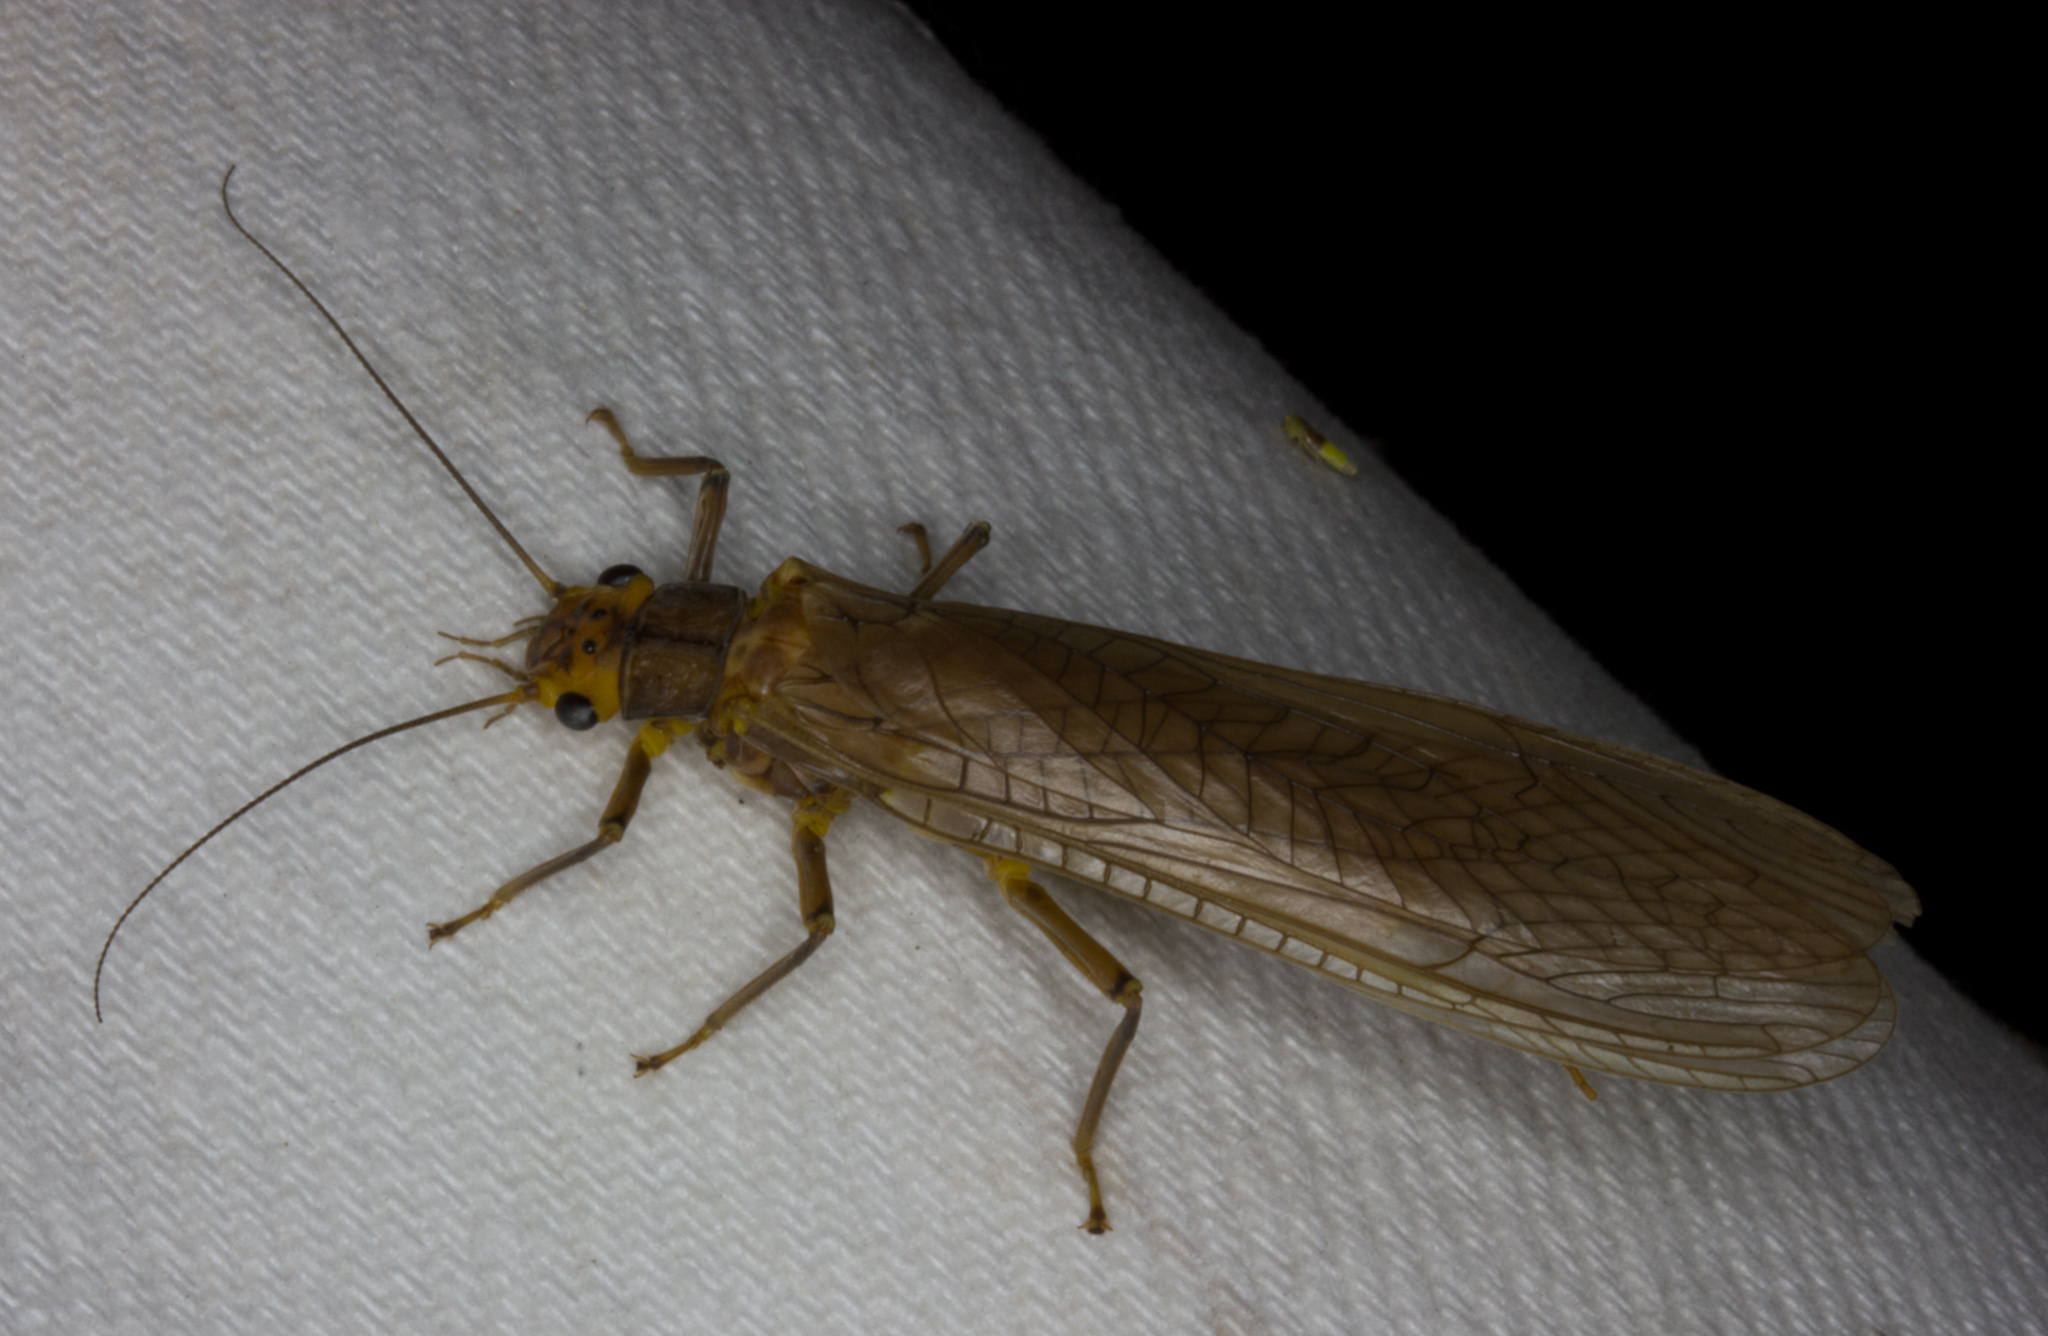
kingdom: Animalia
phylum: Arthropoda
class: Insecta
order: Plecoptera
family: Perlidae
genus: Attaneuria
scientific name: Attaneuria ruralis
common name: Giant stone
